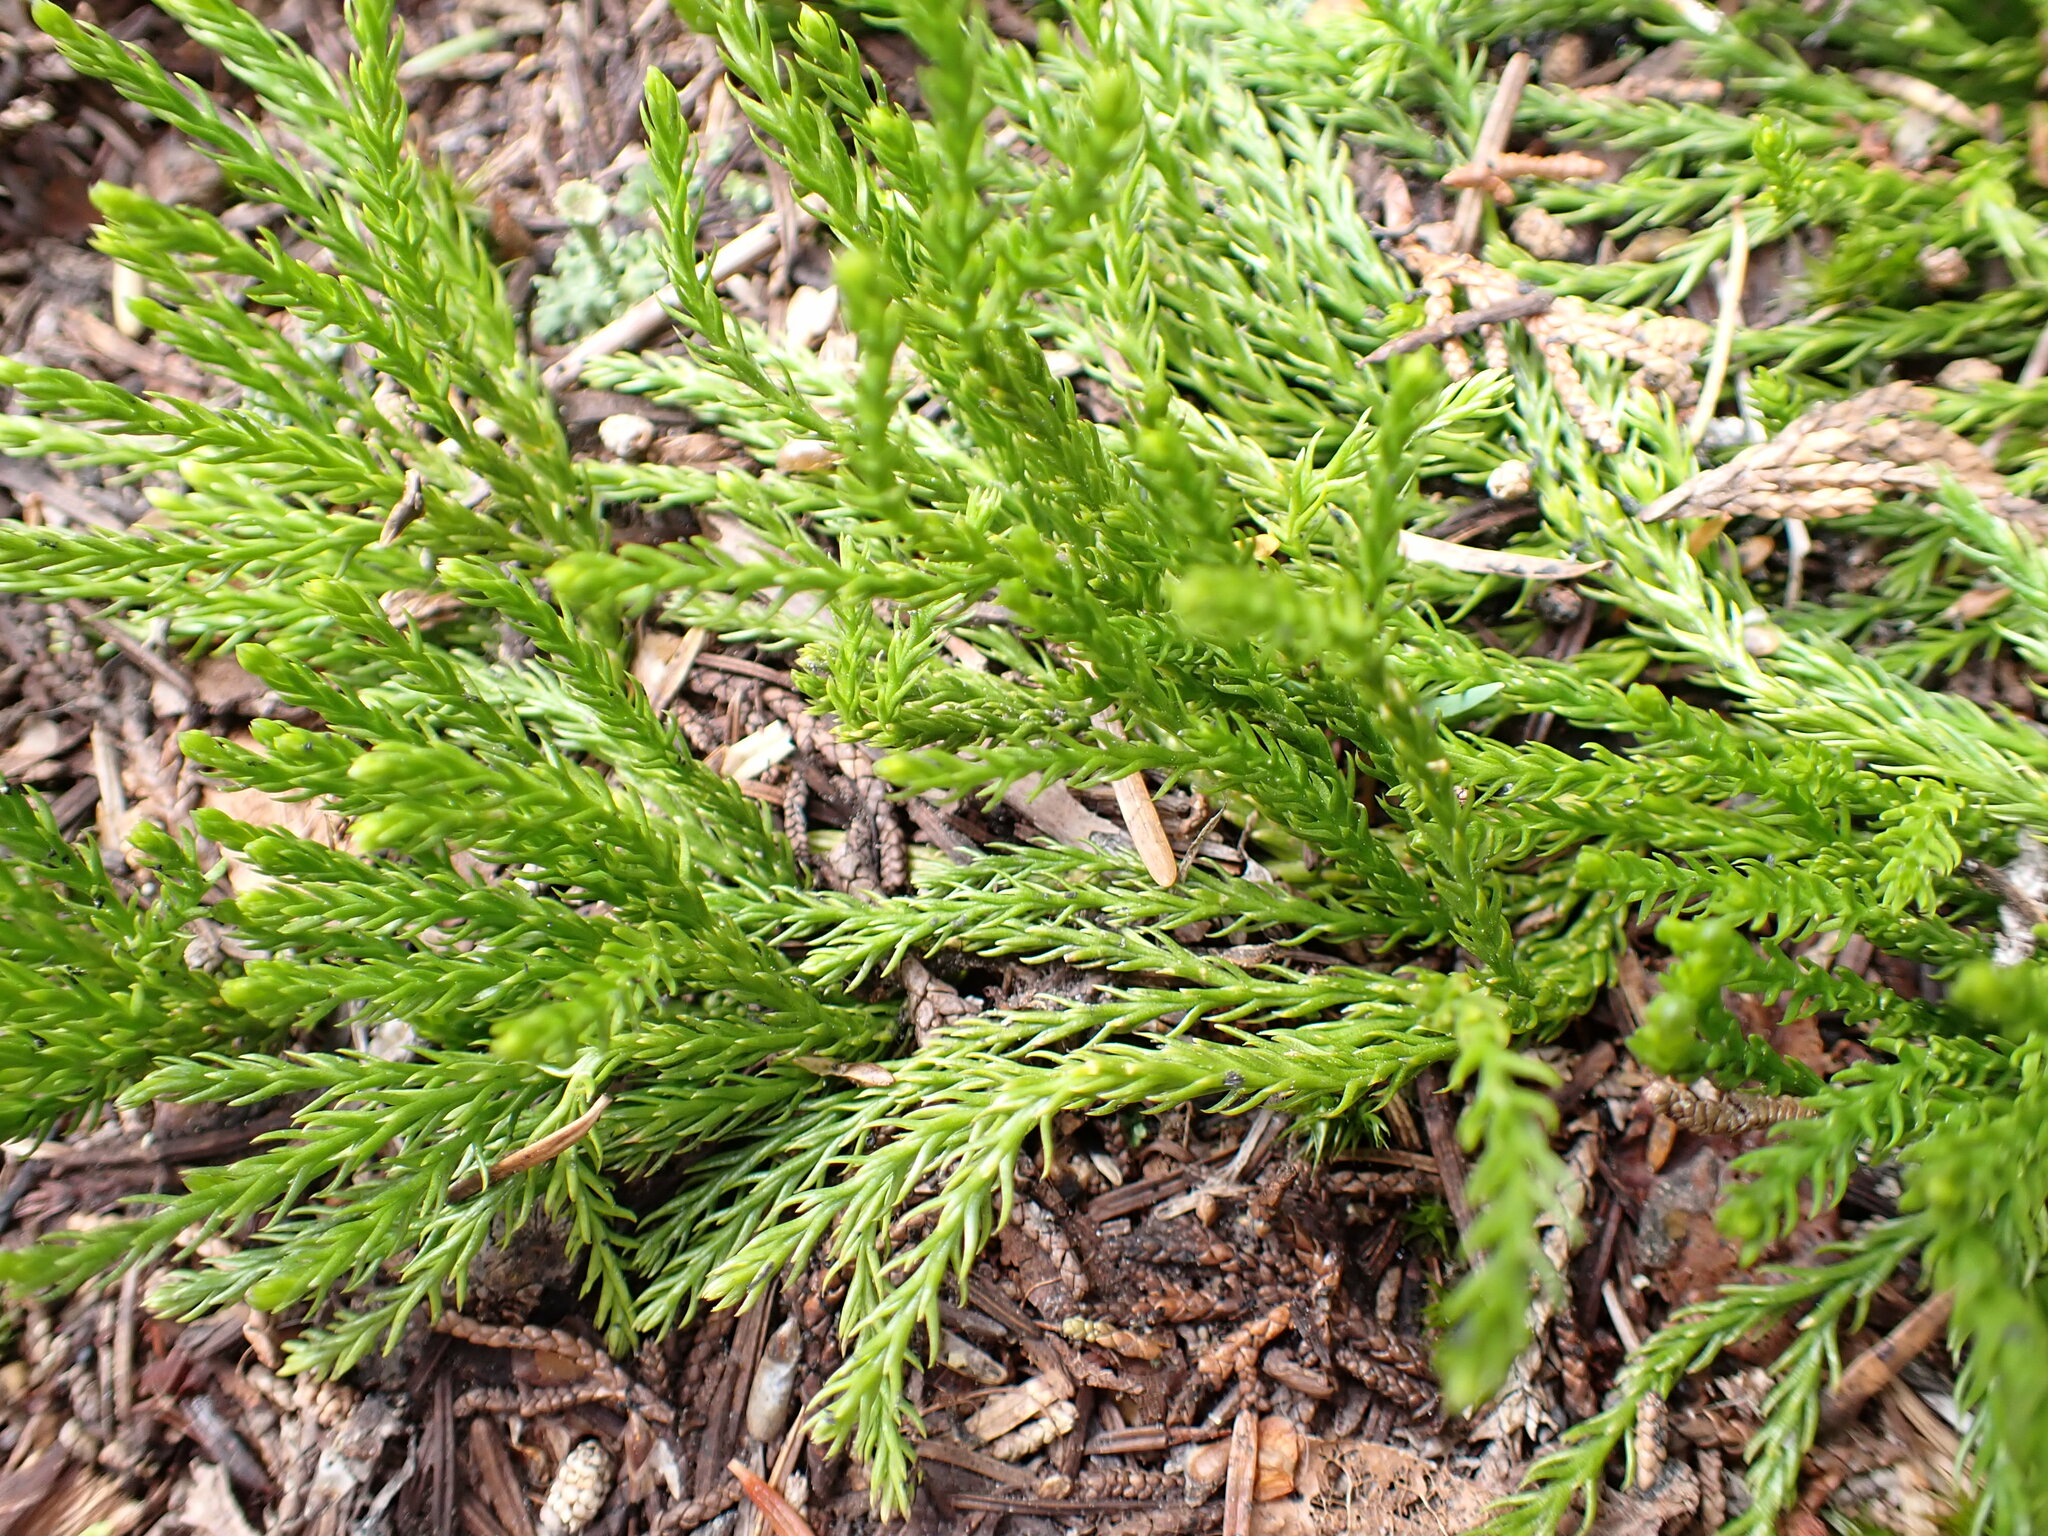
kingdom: Plantae
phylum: Tracheophyta
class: Lycopodiopsida
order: Lycopodiales
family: Lycopodiaceae
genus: Diphasiastrum
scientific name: Diphasiastrum sitchense
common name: Alaska clubmoss
